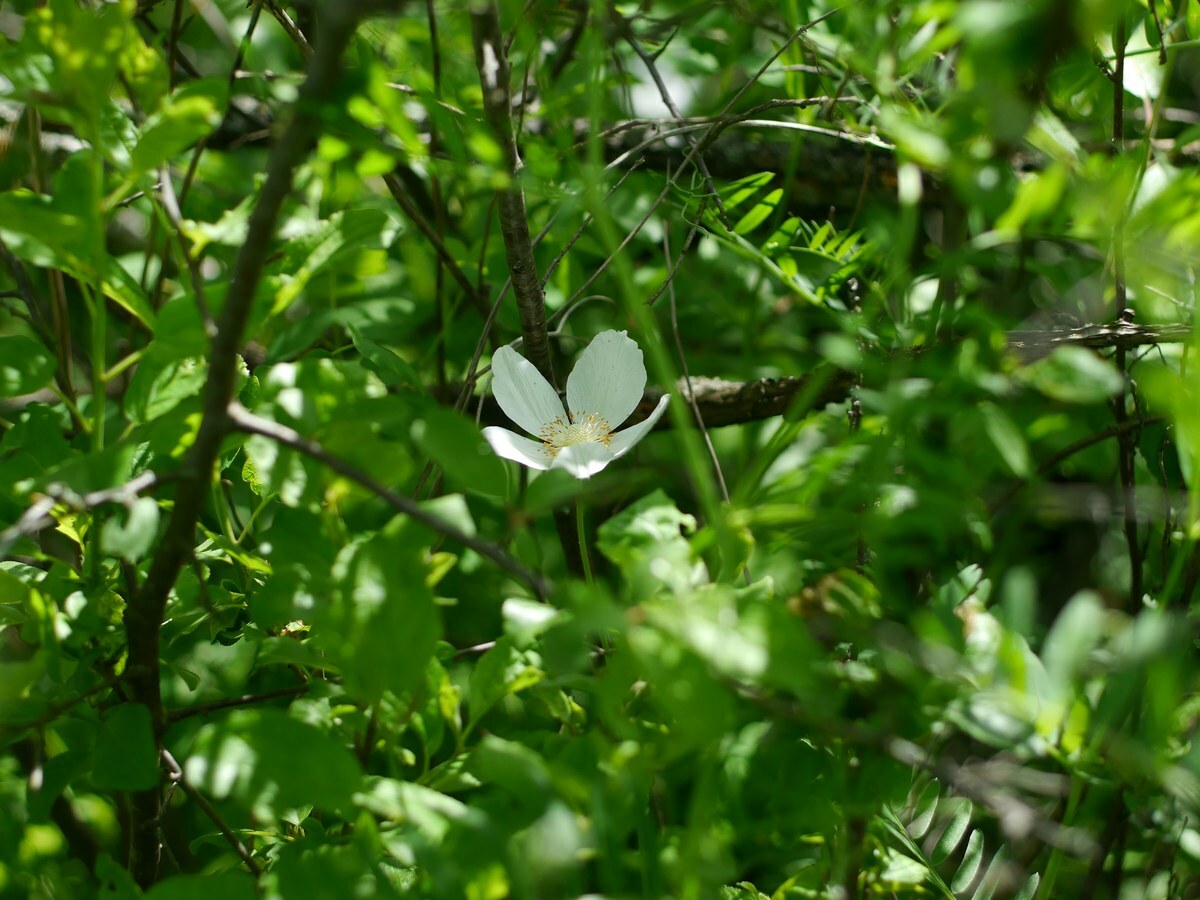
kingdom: Plantae
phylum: Tracheophyta
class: Magnoliopsida
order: Ranunculales
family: Ranunculaceae
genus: Anemone
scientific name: Anemone sylvestris
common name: Snowdrop anemone
